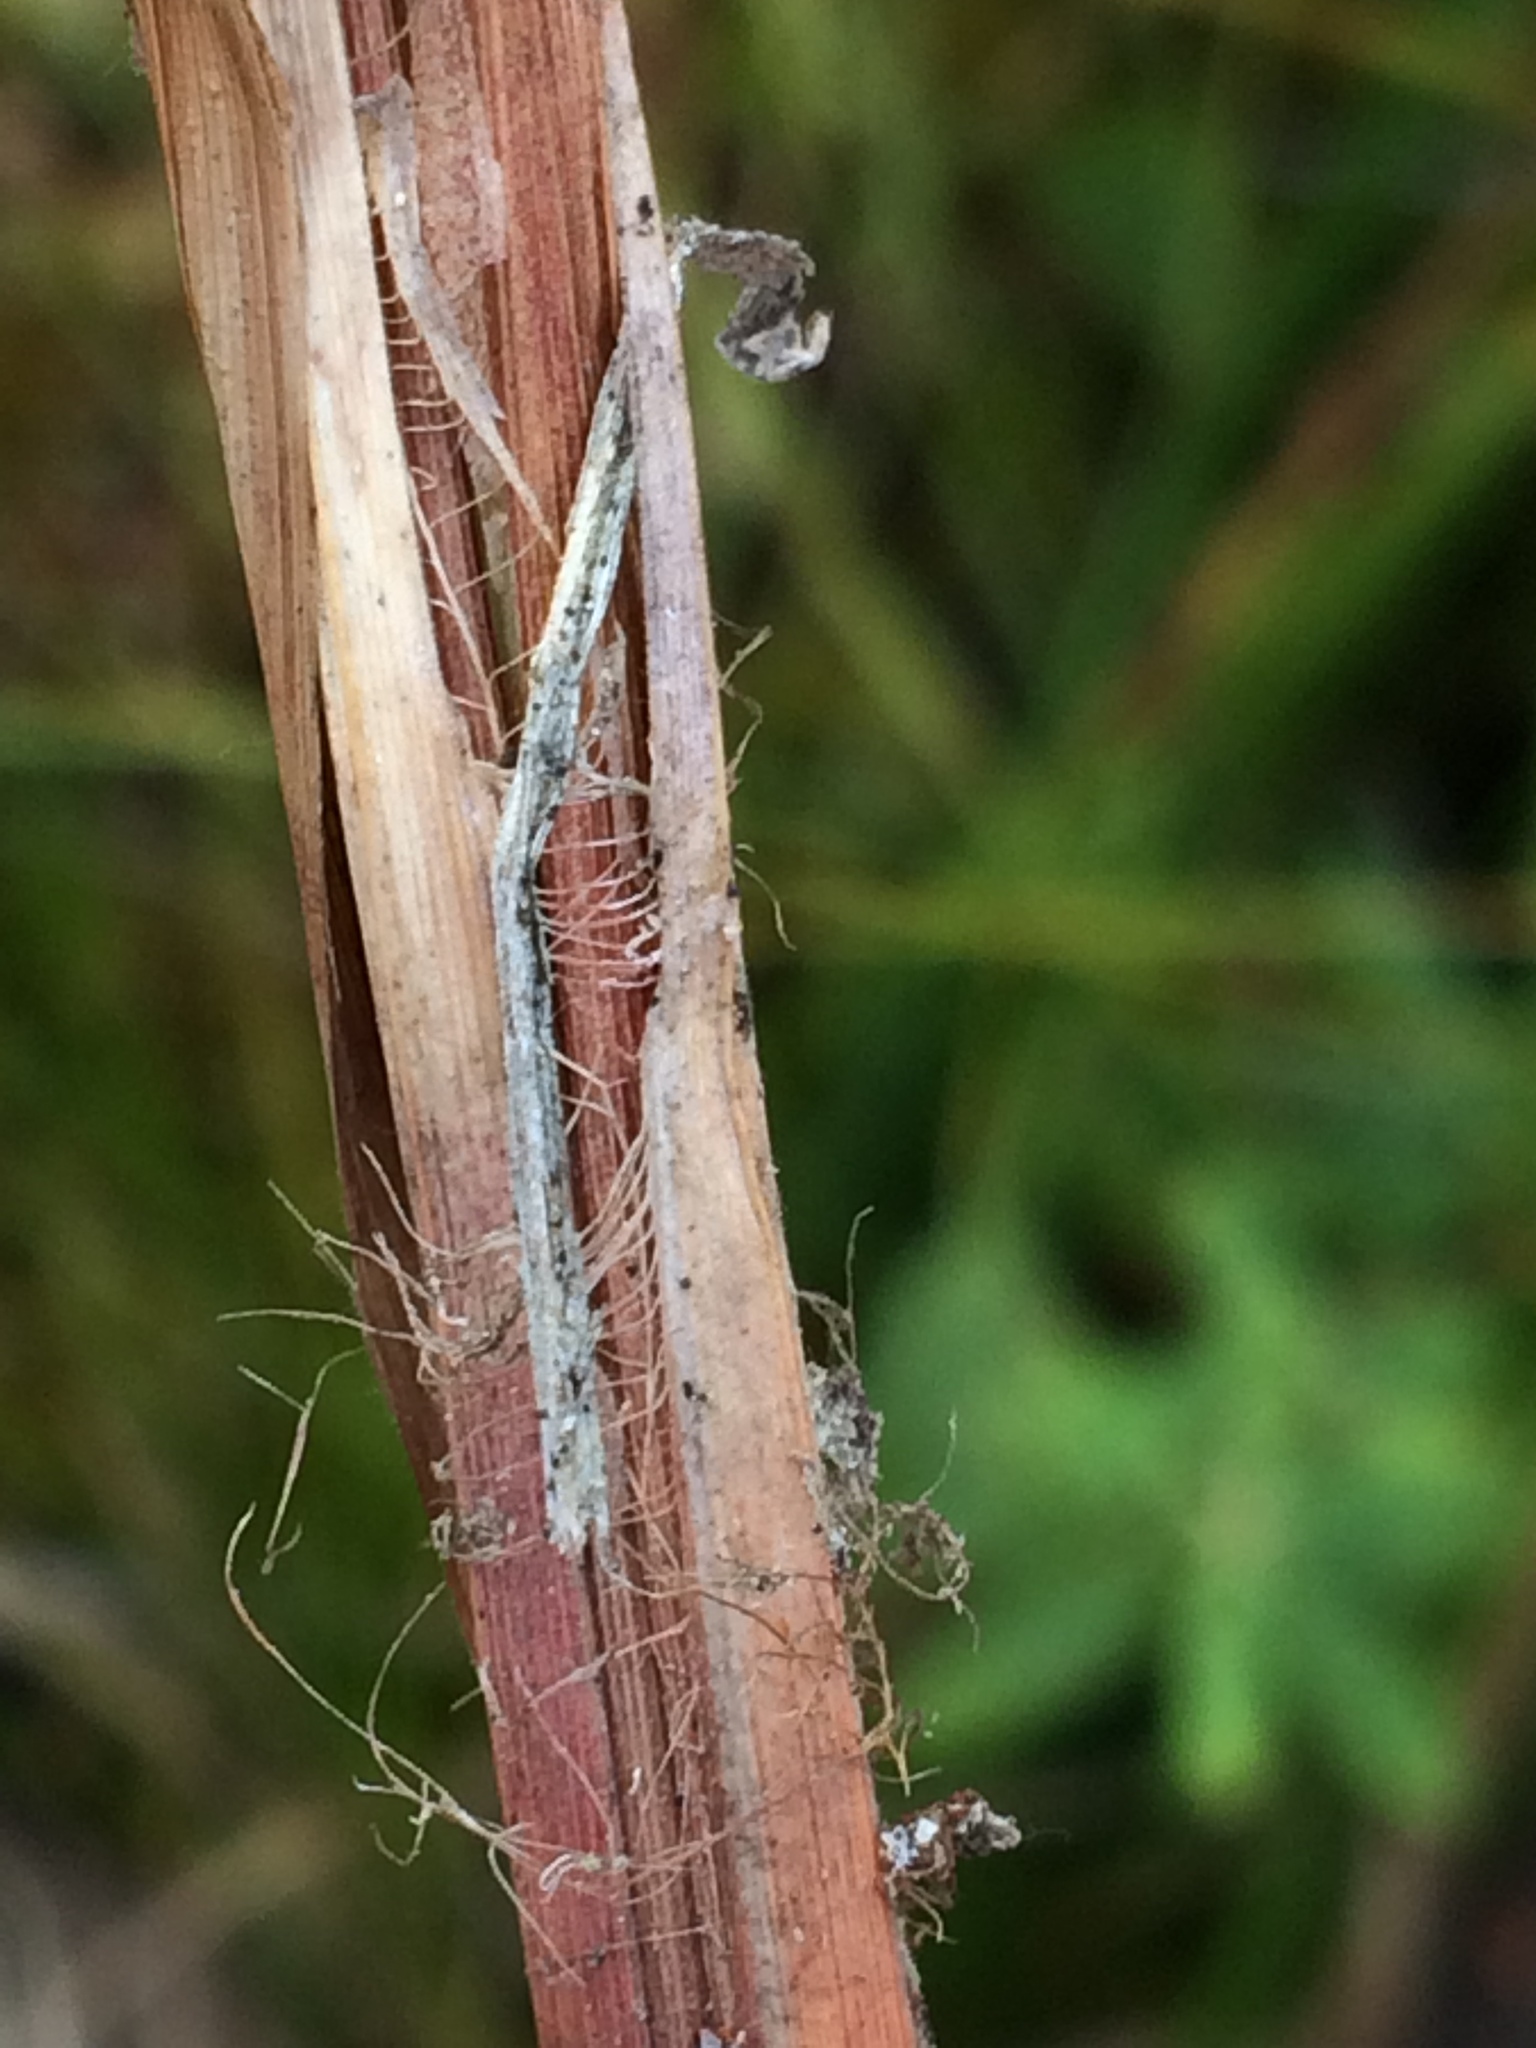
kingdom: Plantae
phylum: Tracheophyta
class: Liliopsida
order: Poales
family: Cyperaceae
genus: Carex
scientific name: Carex stricta
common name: Hummock sedge
